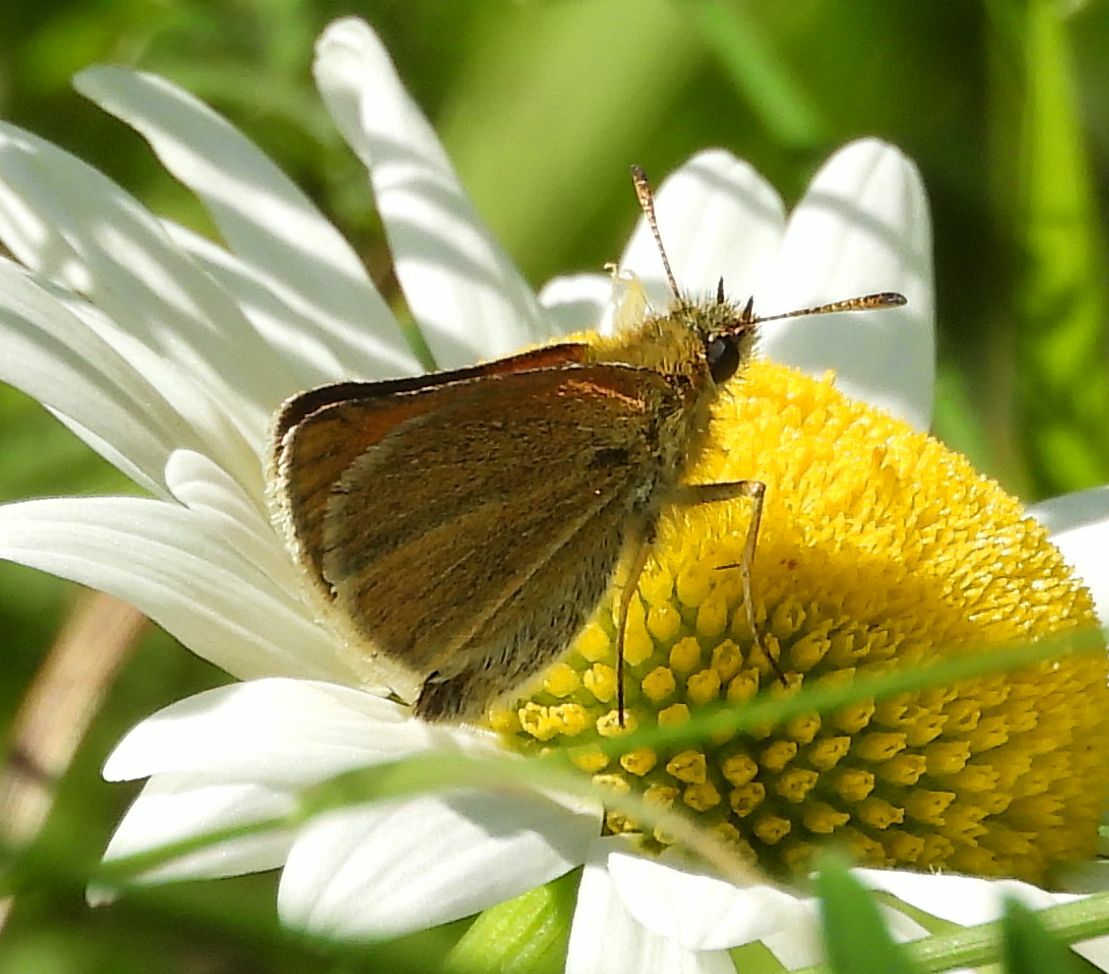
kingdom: Animalia
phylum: Arthropoda
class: Insecta
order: Lepidoptera
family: Hesperiidae
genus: Thymelicus
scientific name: Thymelicus lineola
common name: Essex skipper
